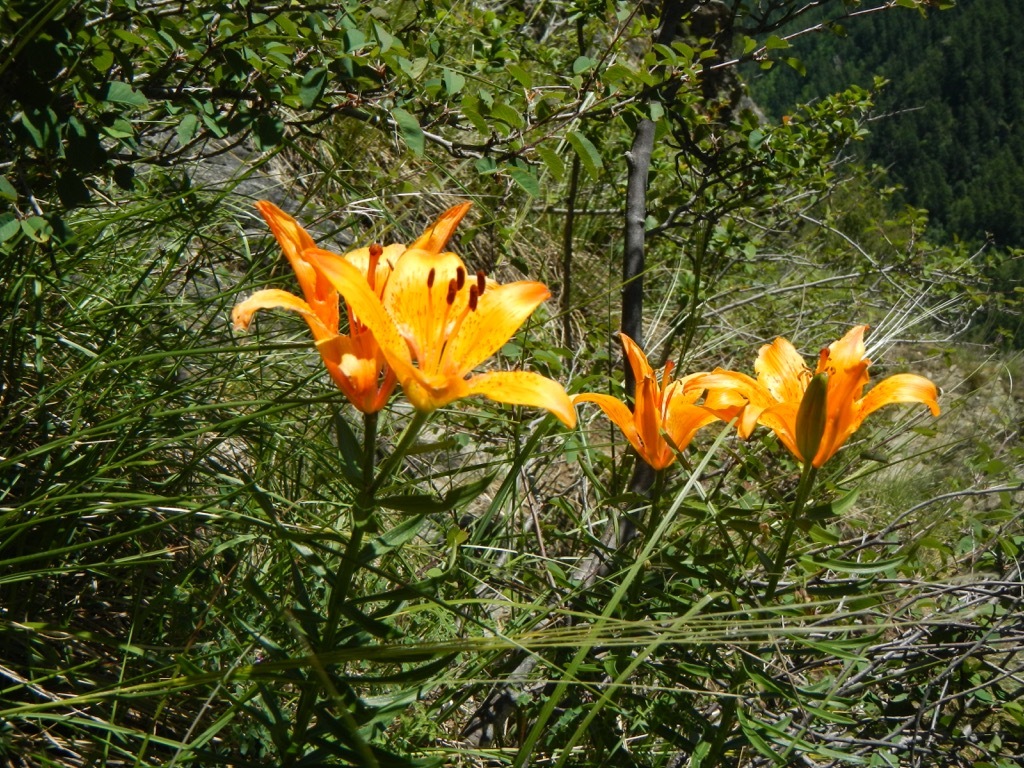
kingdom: Plantae
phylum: Tracheophyta
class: Liliopsida
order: Liliales
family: Liliaceae
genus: Lilium
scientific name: Lilium bulbiferum
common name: Orange lily
